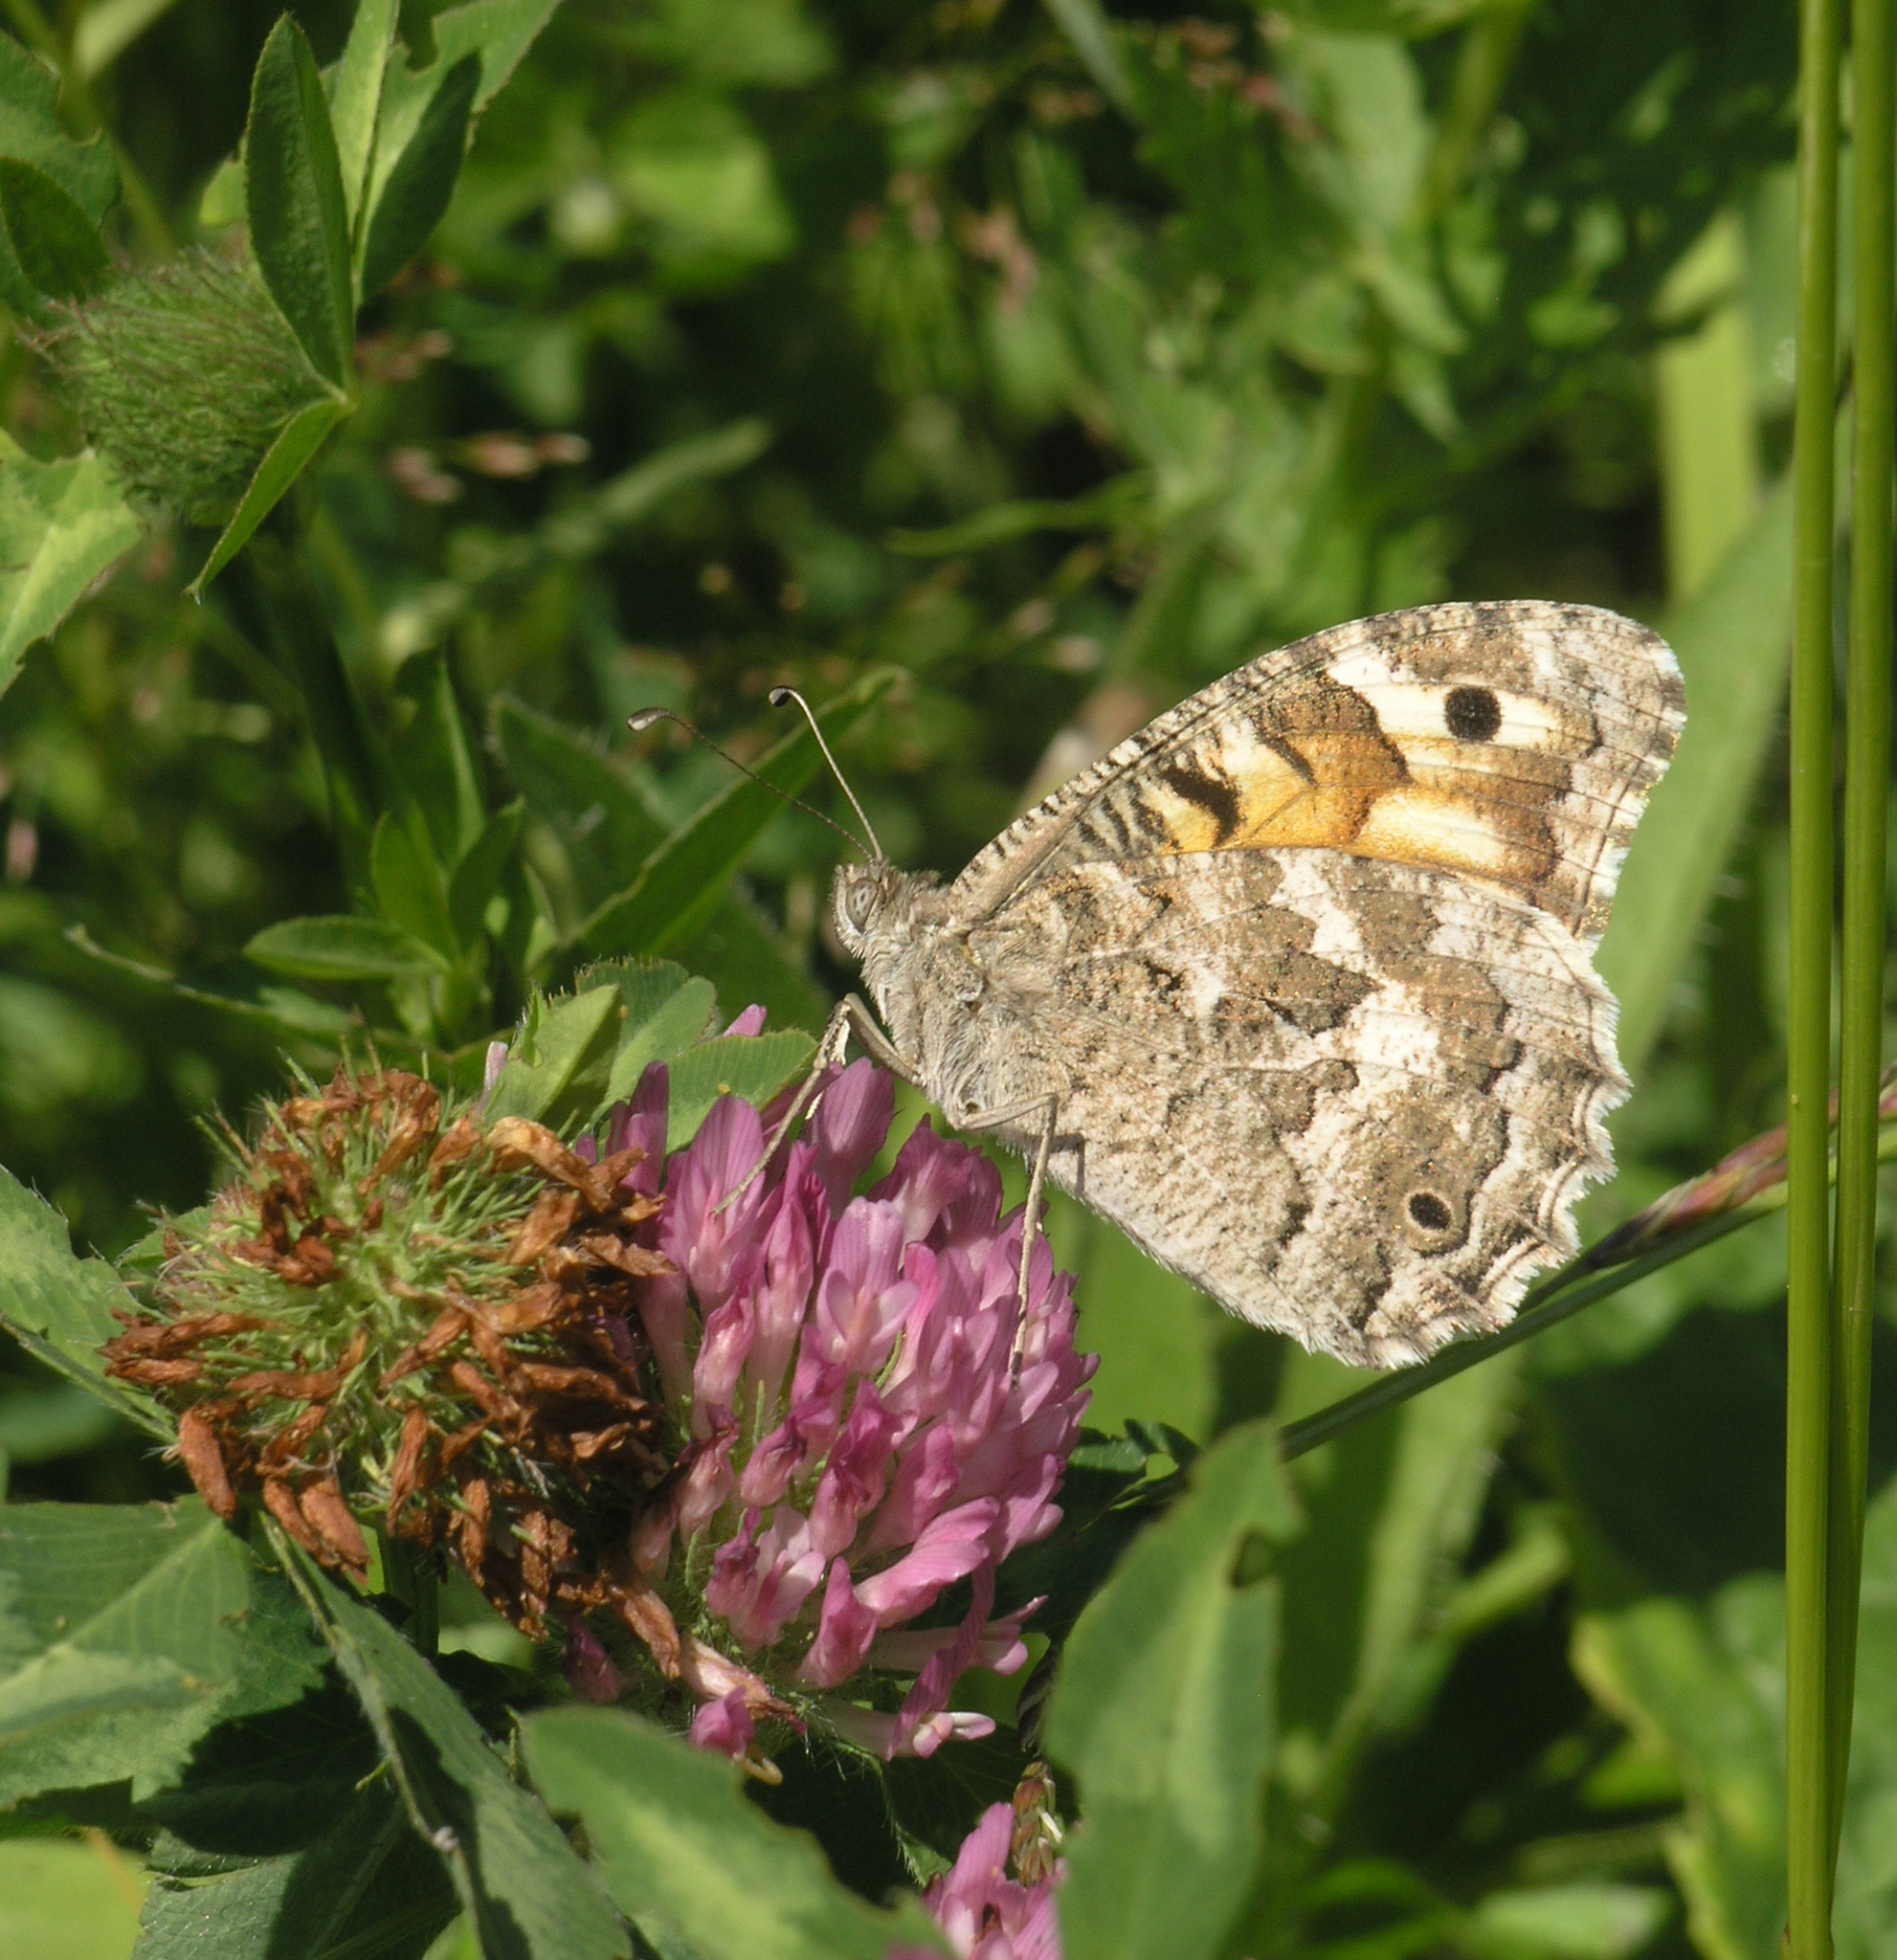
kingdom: Animalia
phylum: Arthropoda
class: Insecta
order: Lepidoptera
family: Nymphalidae
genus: Satyrus
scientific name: Satyrus Chazara enervata
